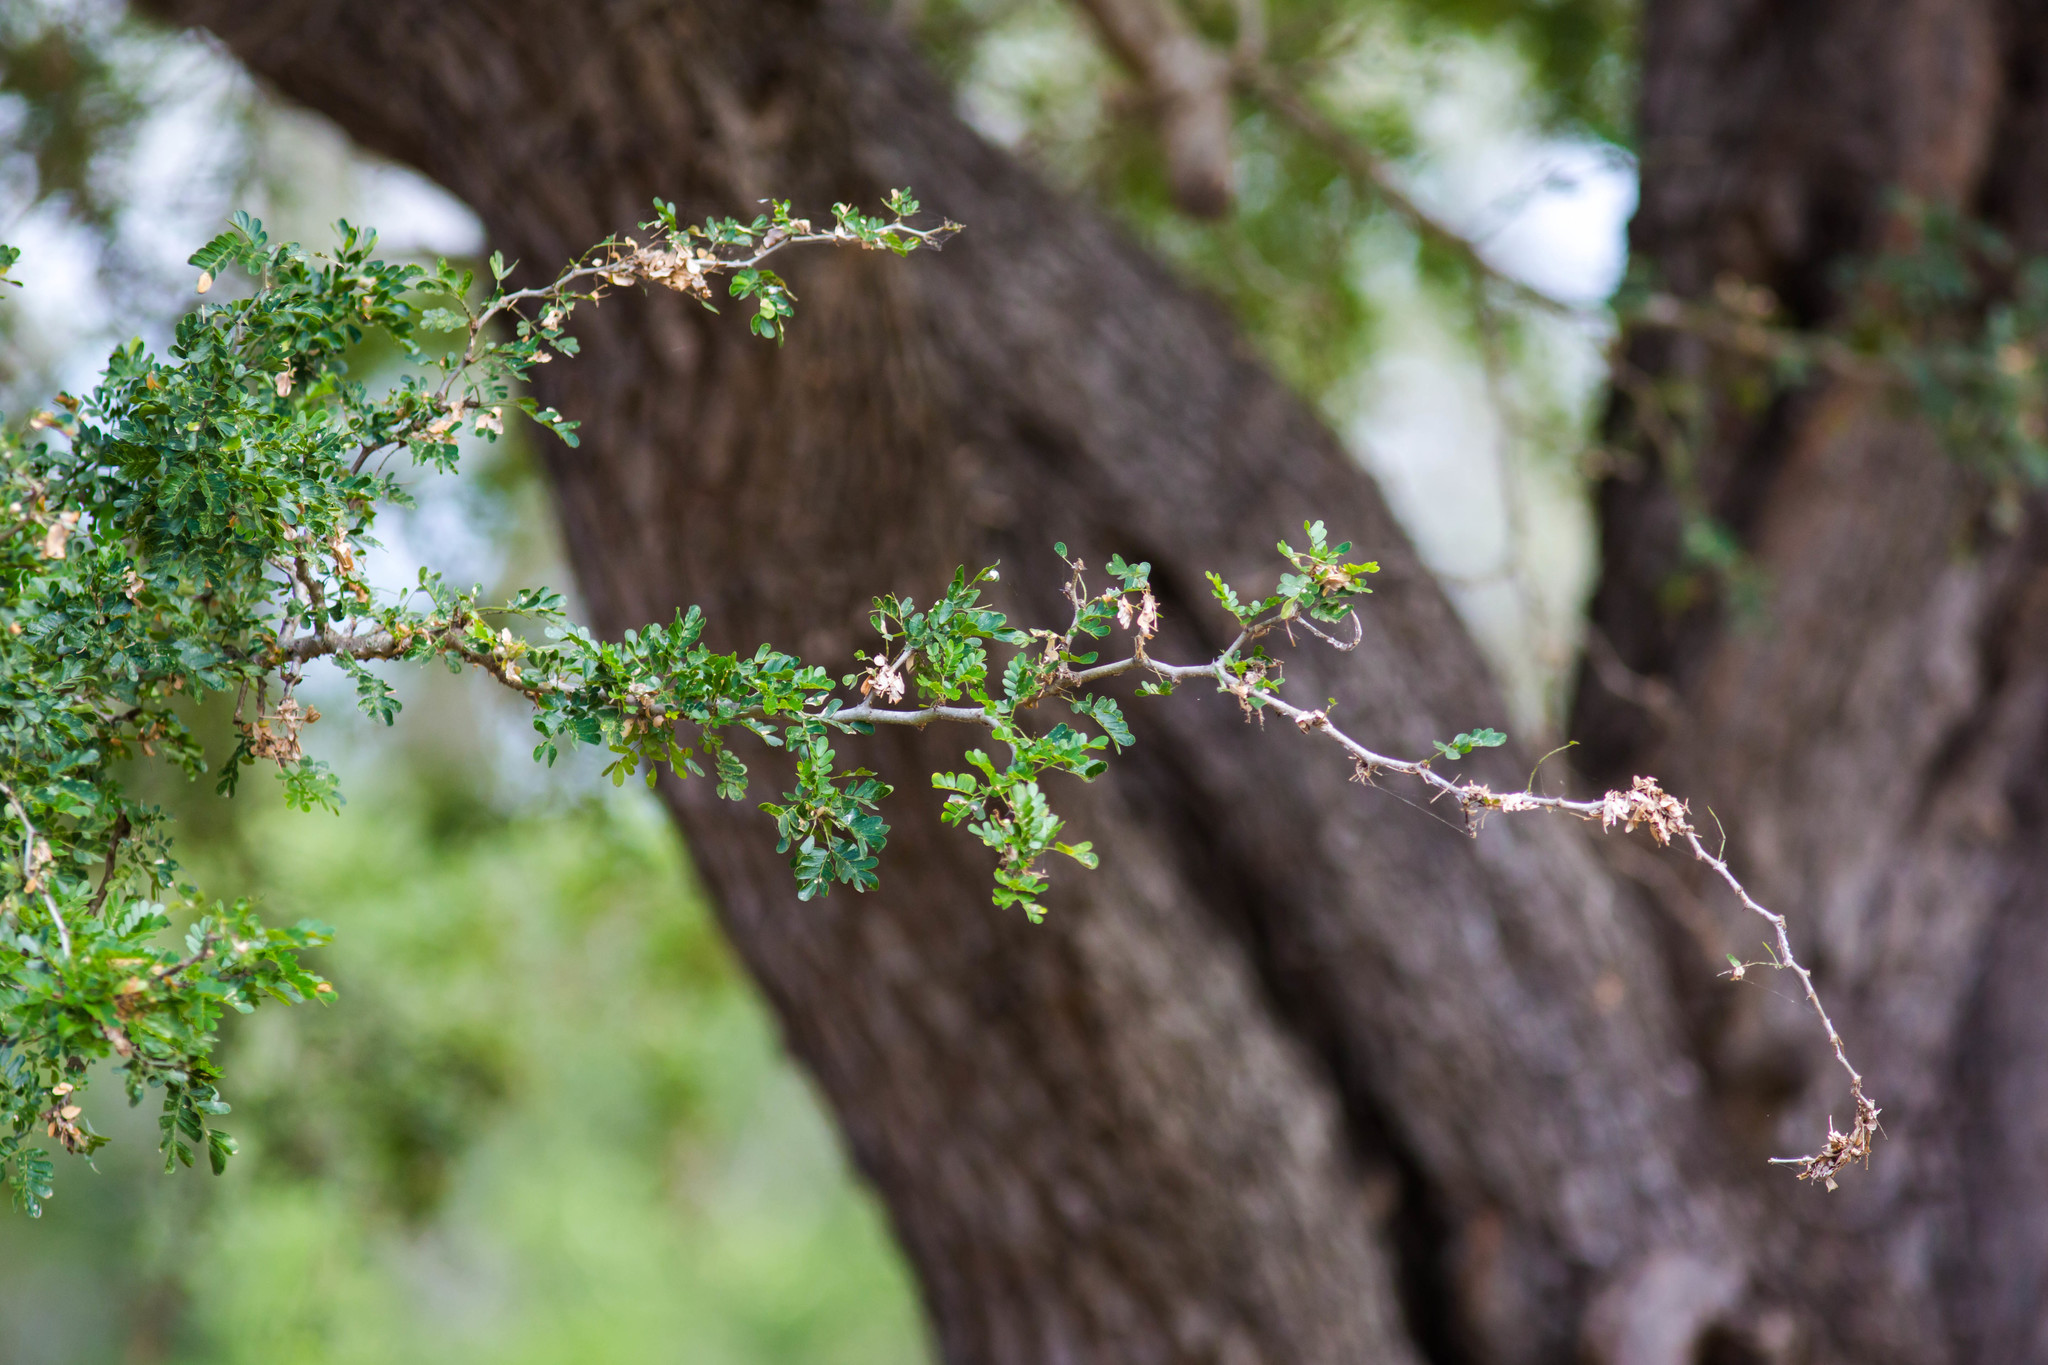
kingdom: Plantae
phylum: Tracheophyta
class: Magnoliopsida
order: Fabales
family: Fabaceae
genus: Ebenopsis
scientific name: Ebenopsis ebano
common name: Ebony blackbead
